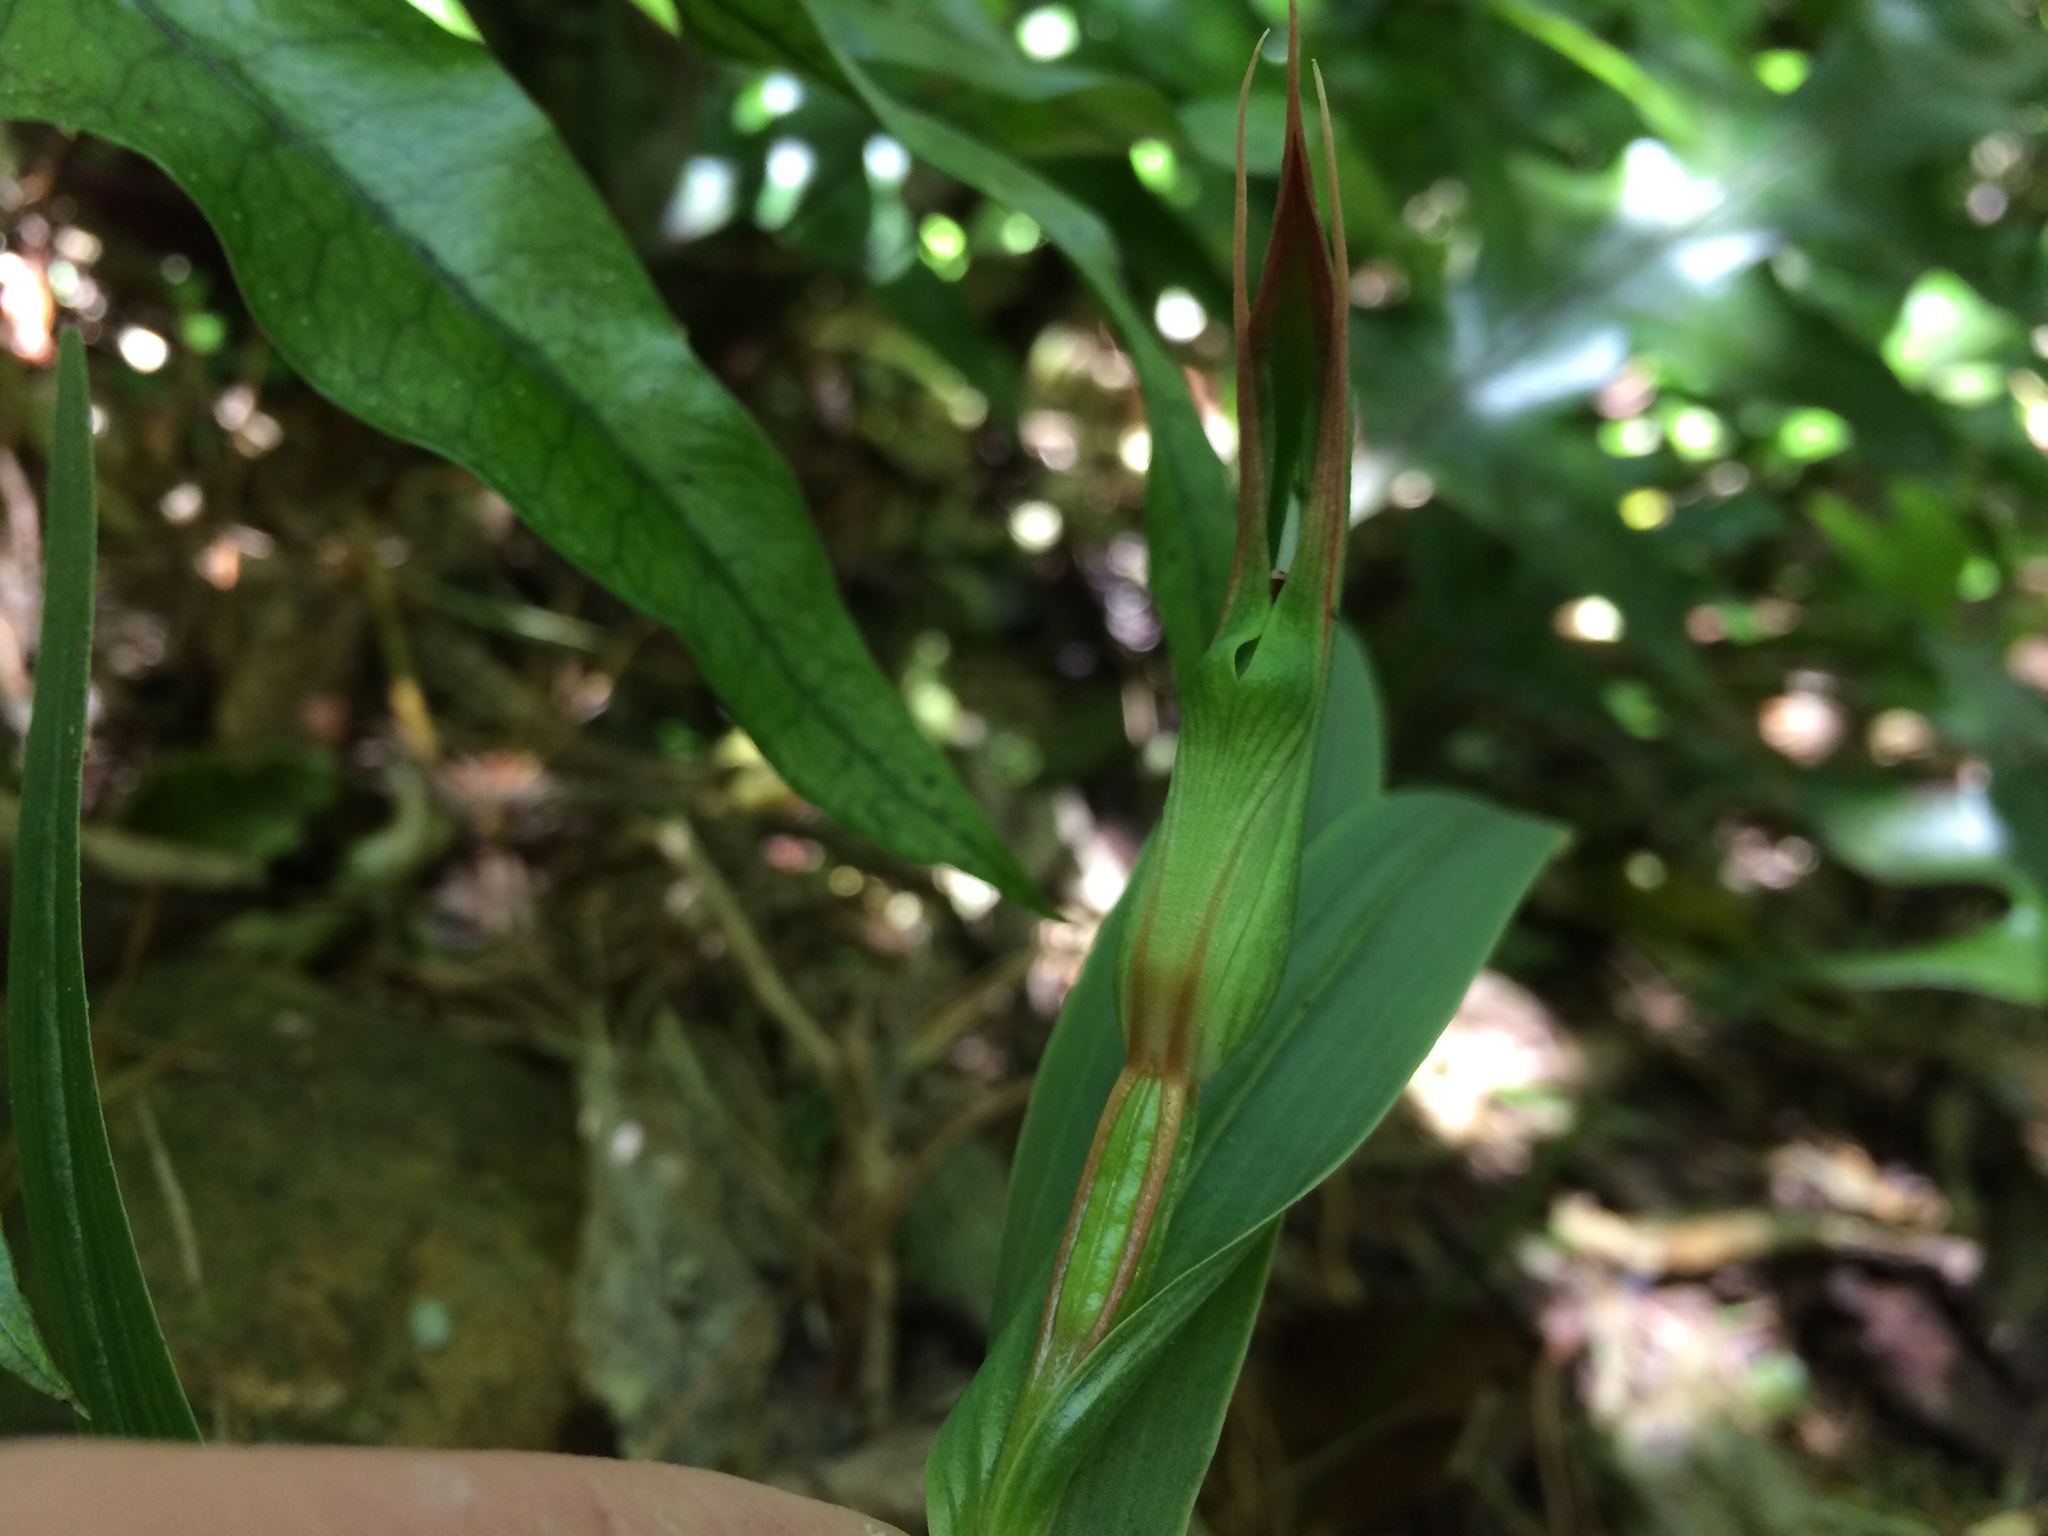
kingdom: Plantae
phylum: Tracheophyta
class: Liliopsida
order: Asparagales
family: Orchidaceae
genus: Pterostylis
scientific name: Pterostylis cardiostigma
